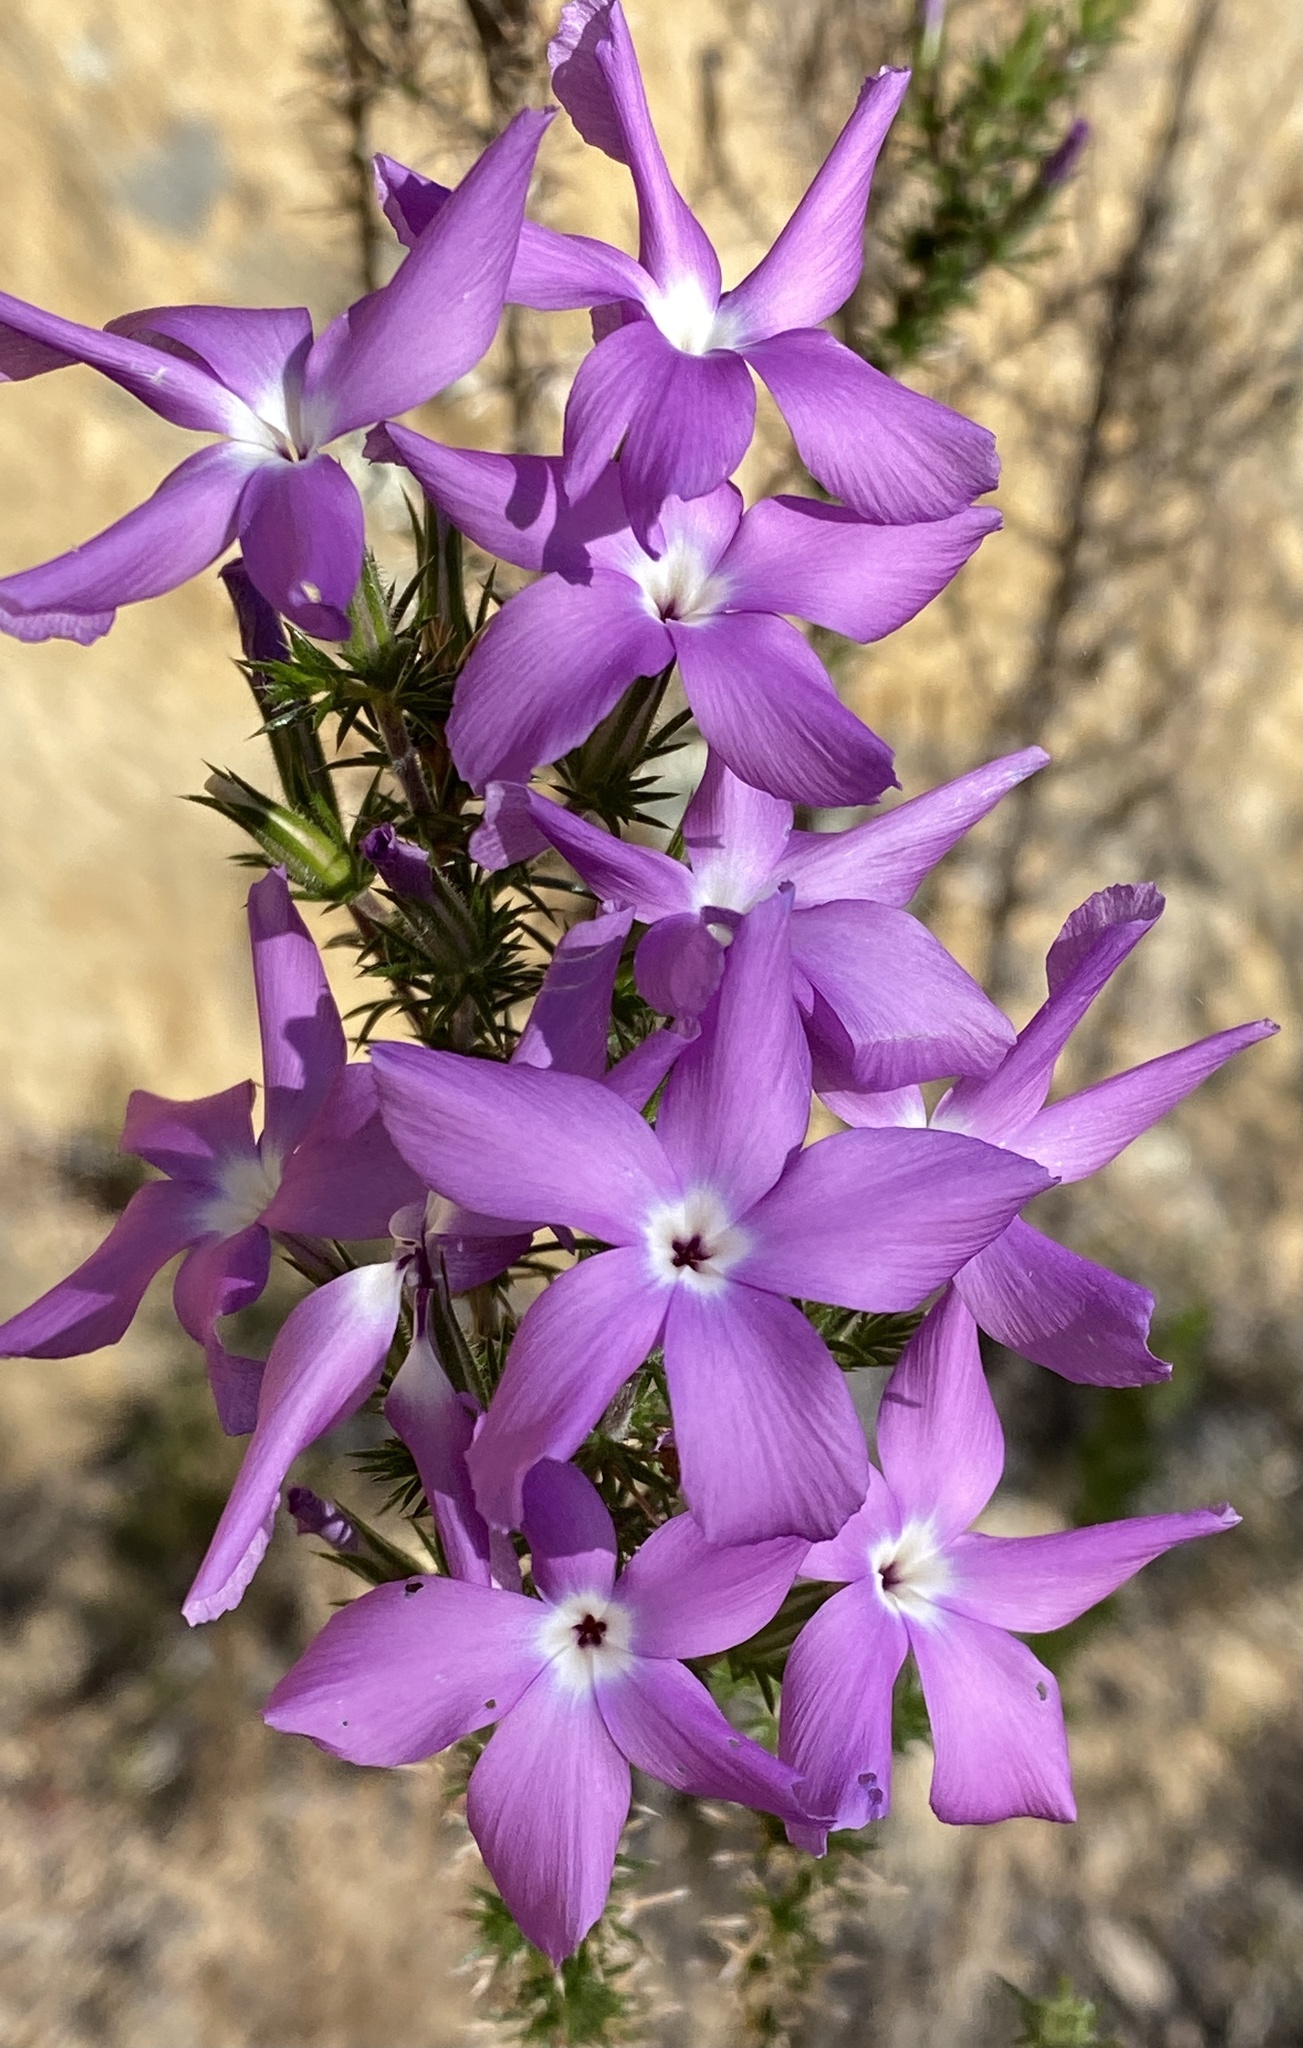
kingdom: Plantae
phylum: Tracheophyta
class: Magnoliopsida
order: Ericales
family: Polemoniaceae
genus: Linanthus
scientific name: Linanthus californicus
